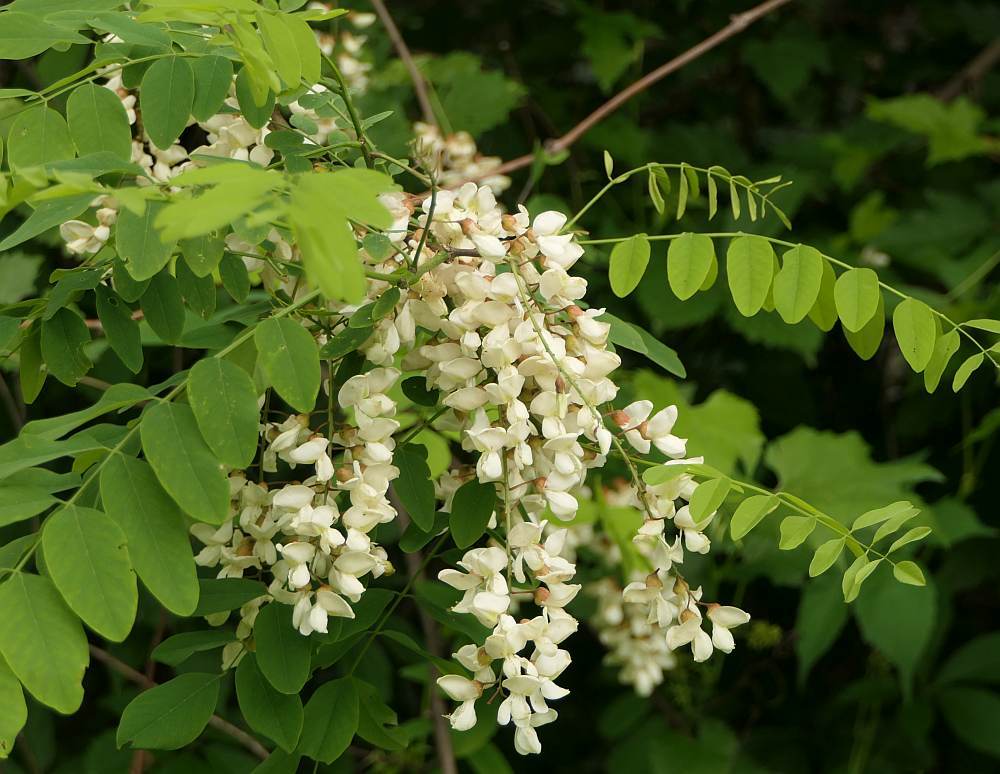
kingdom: Plantae
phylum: Tracheophyta
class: Magnoliopsida
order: Fabales
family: Fabaceae
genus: Robinia
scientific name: Robinia pseudoacacia
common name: Black locust
